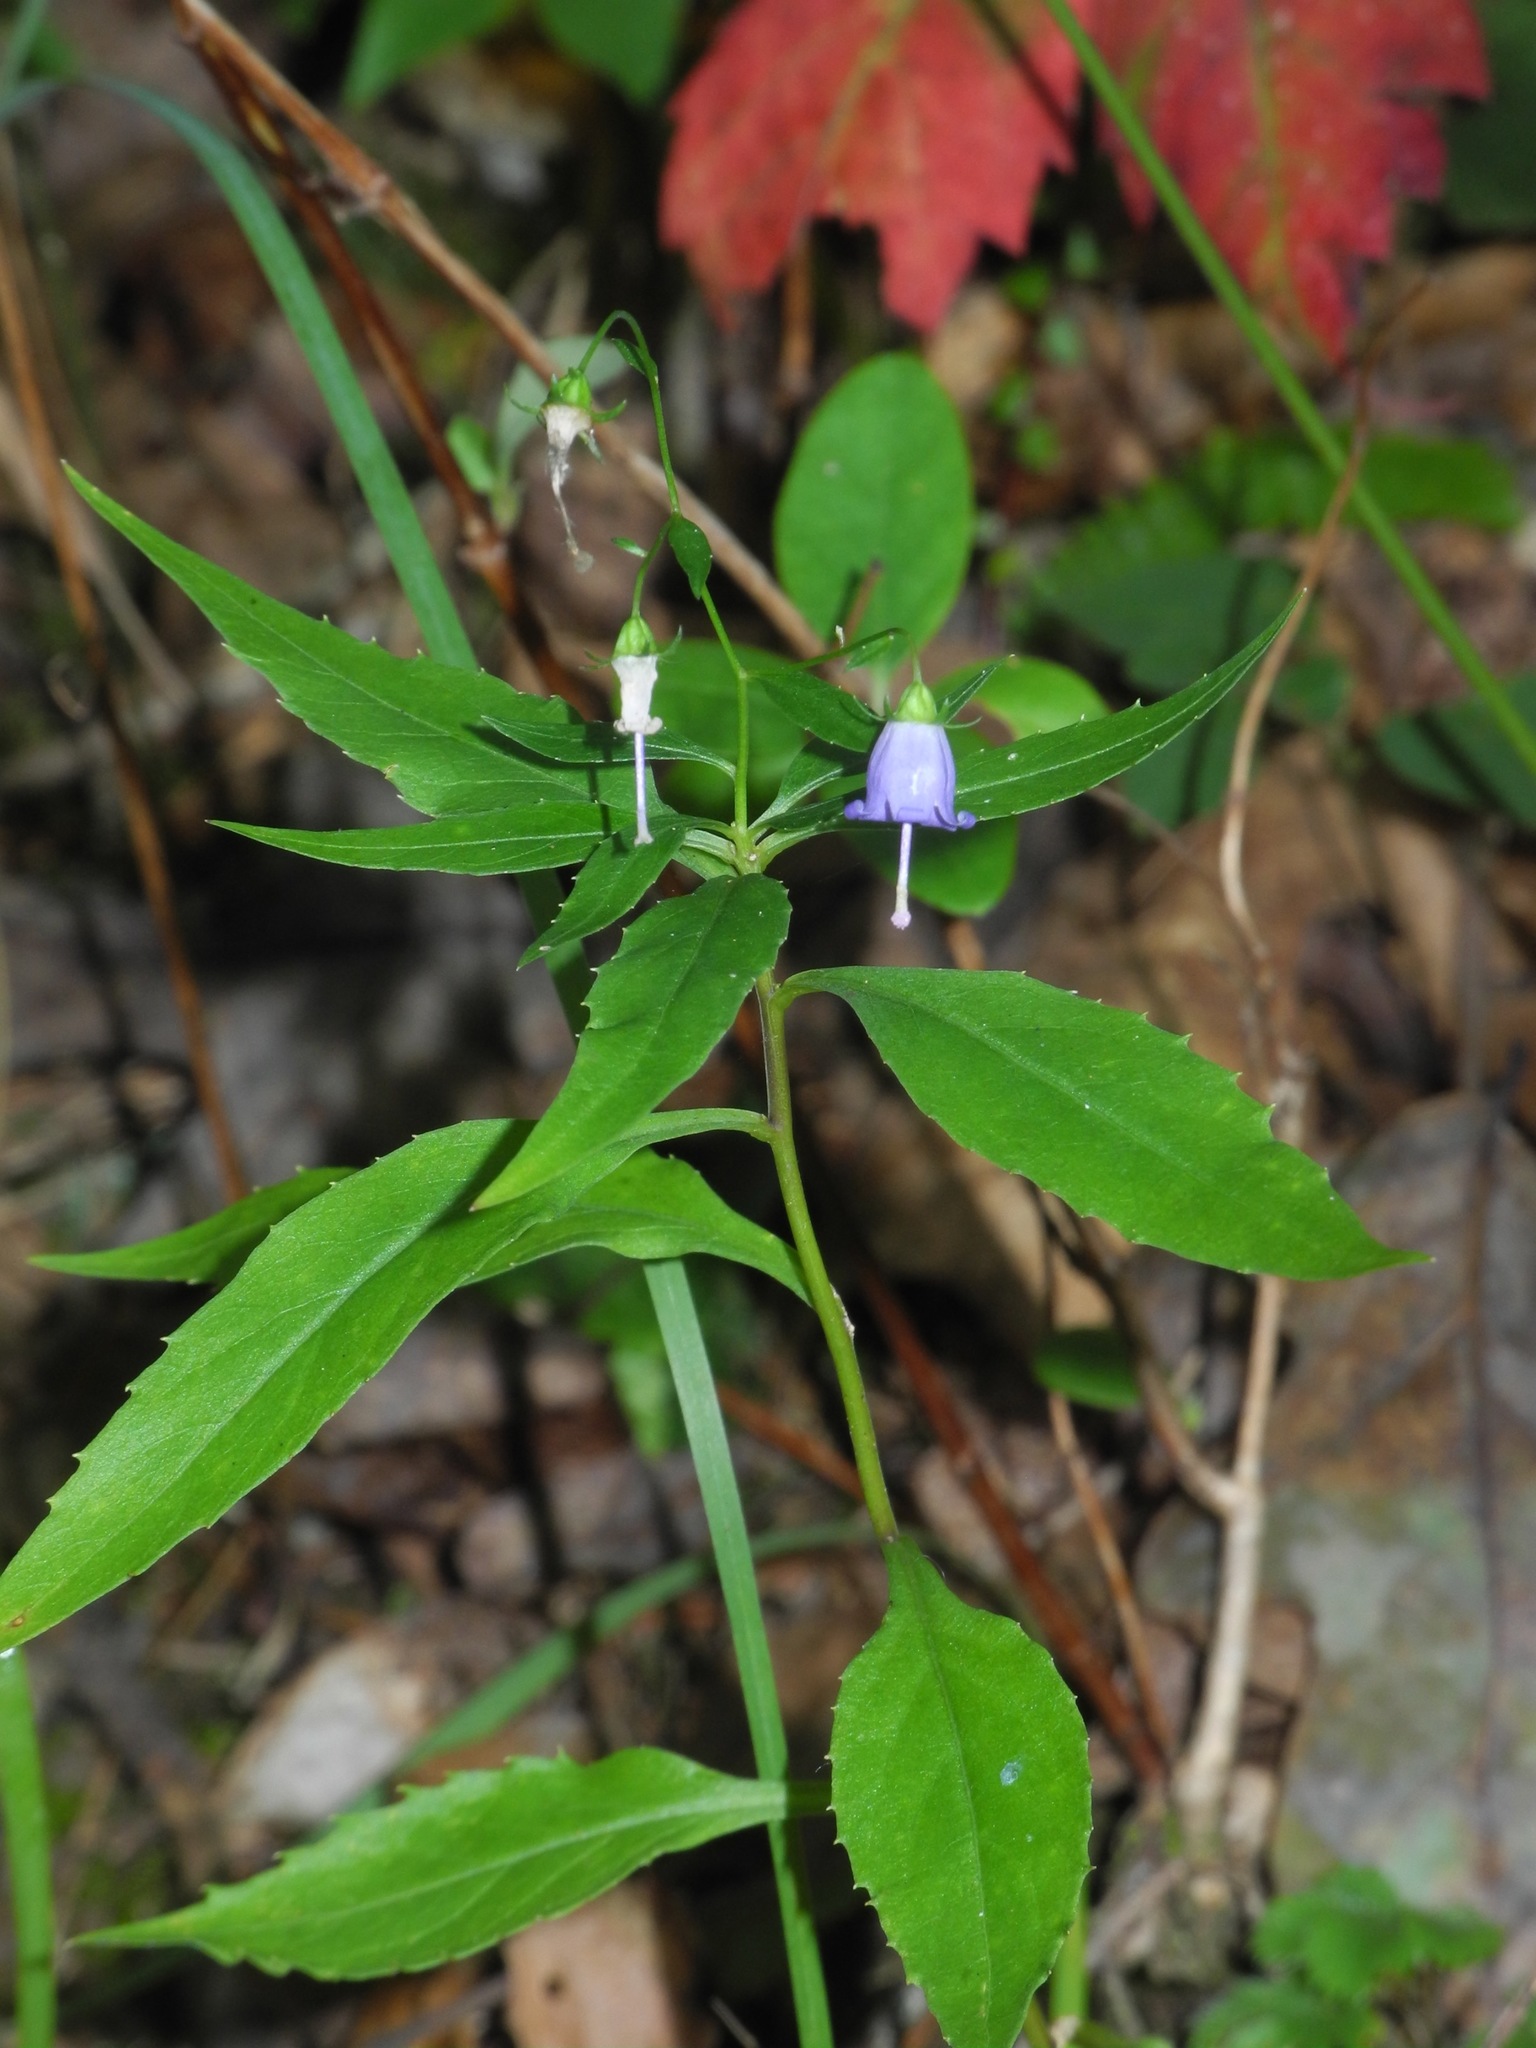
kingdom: Plantae
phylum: Tracheophyta
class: Magnoliopsida
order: Asterales
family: Campanulaceae
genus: Campanula
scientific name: Campanula divaricata
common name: Appalachian bellflower
